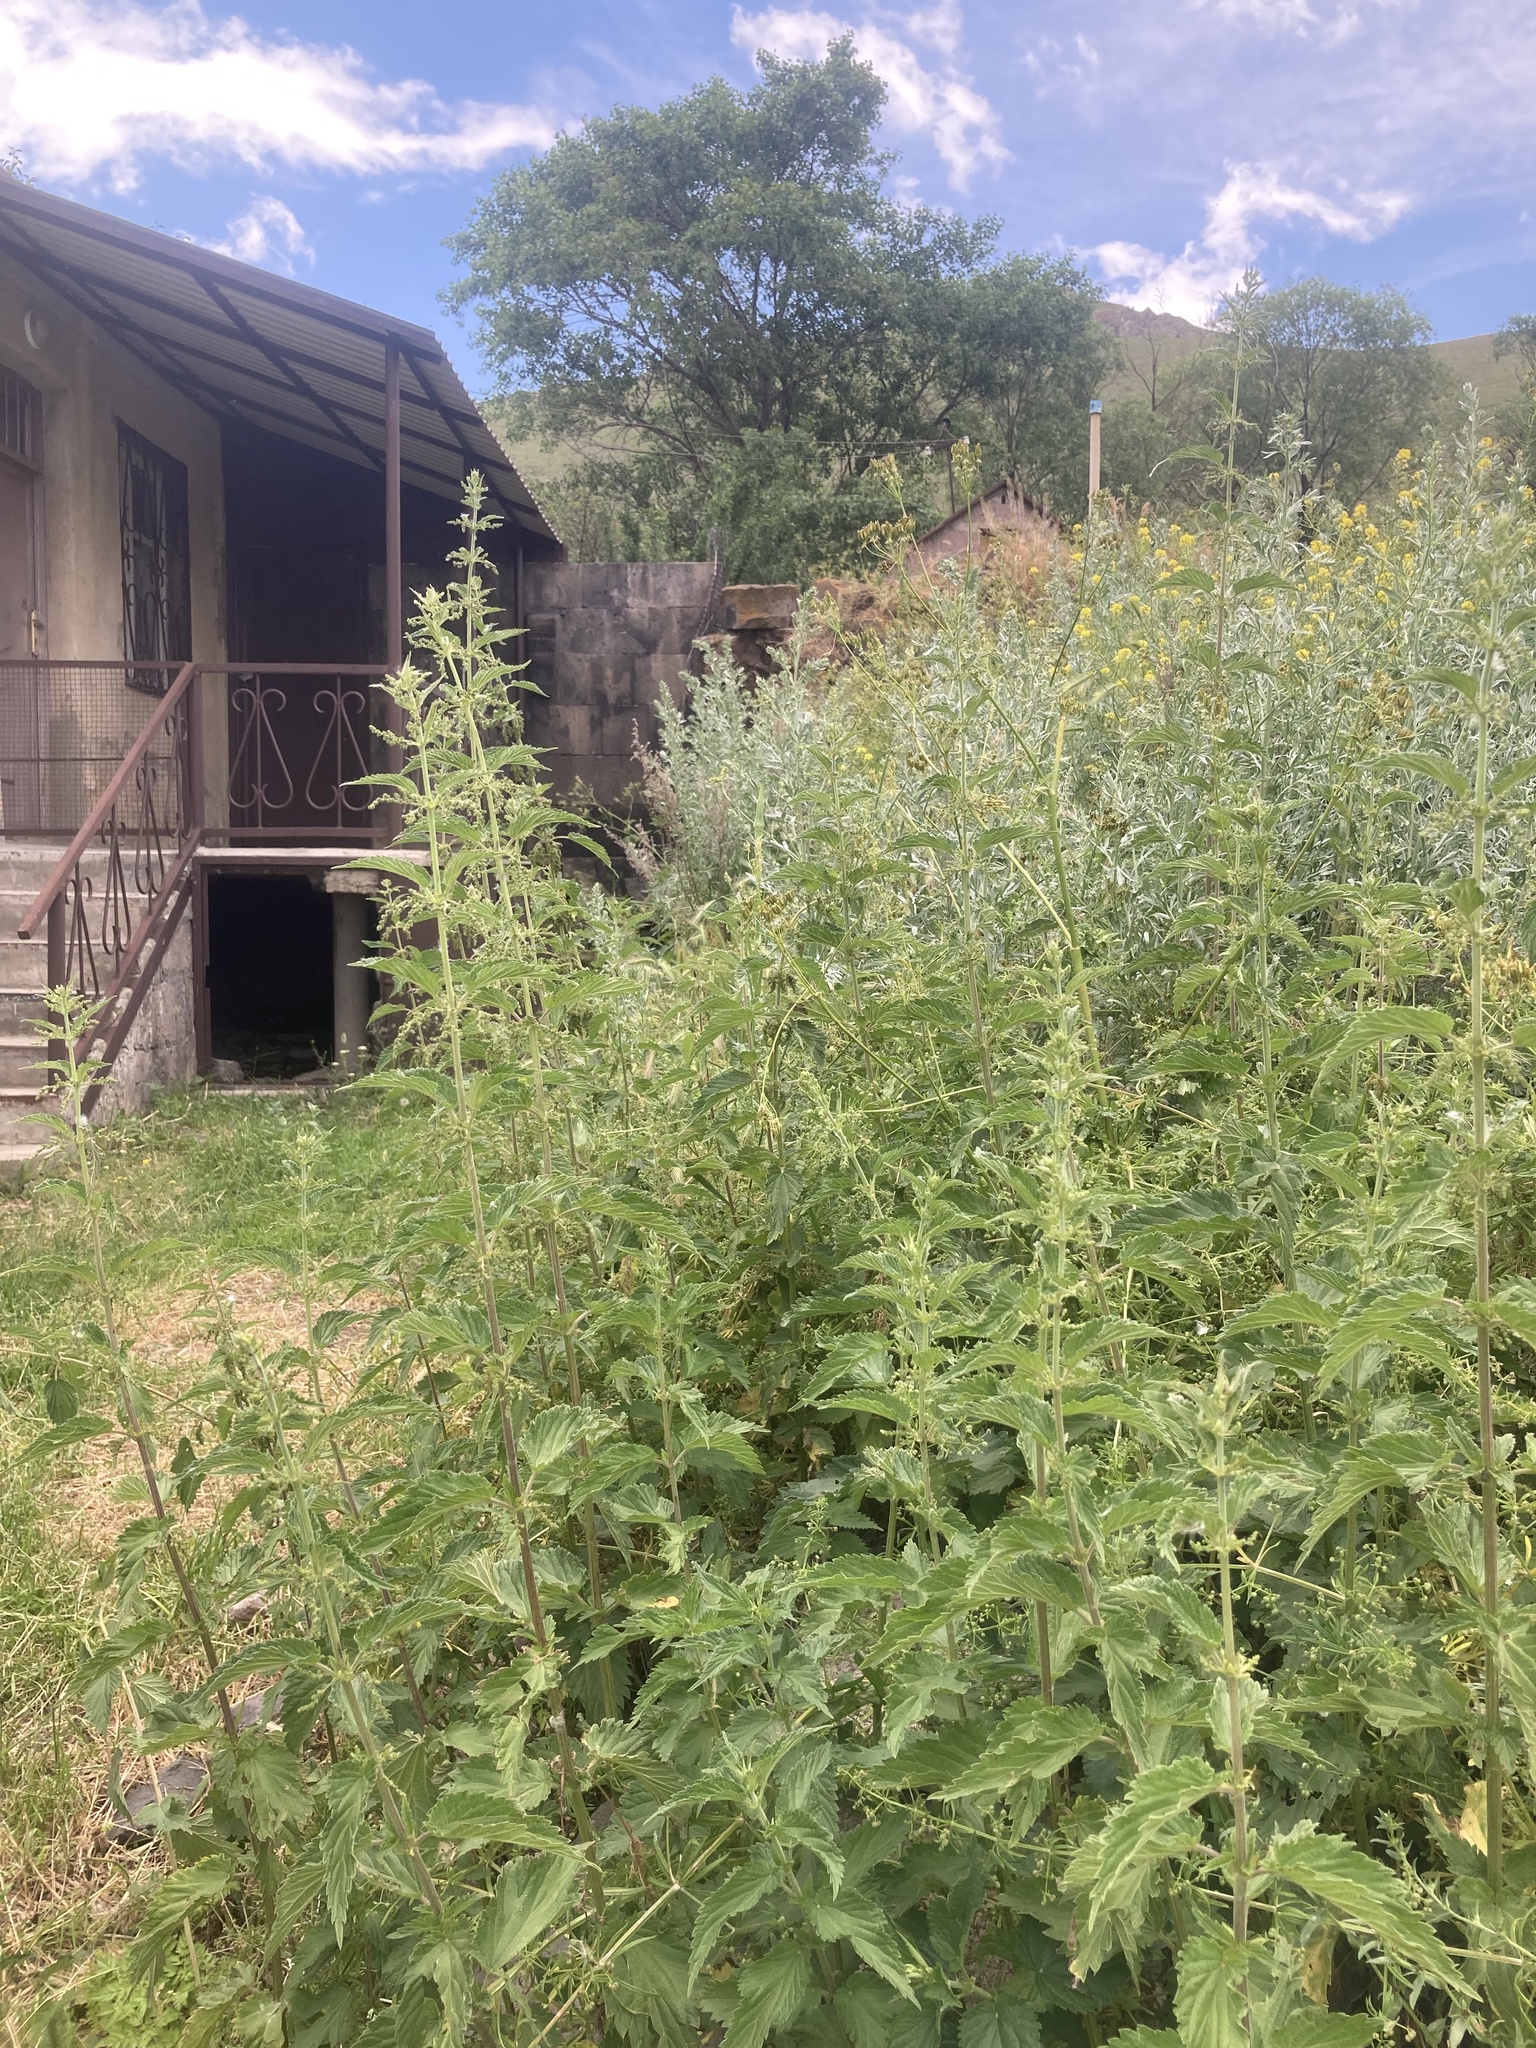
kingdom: Plantae
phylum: Tracheophyta
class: Magnoliopsida
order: Rosales
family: Urticaceae
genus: Urtica
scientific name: Urtica dioica
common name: Common nettle
